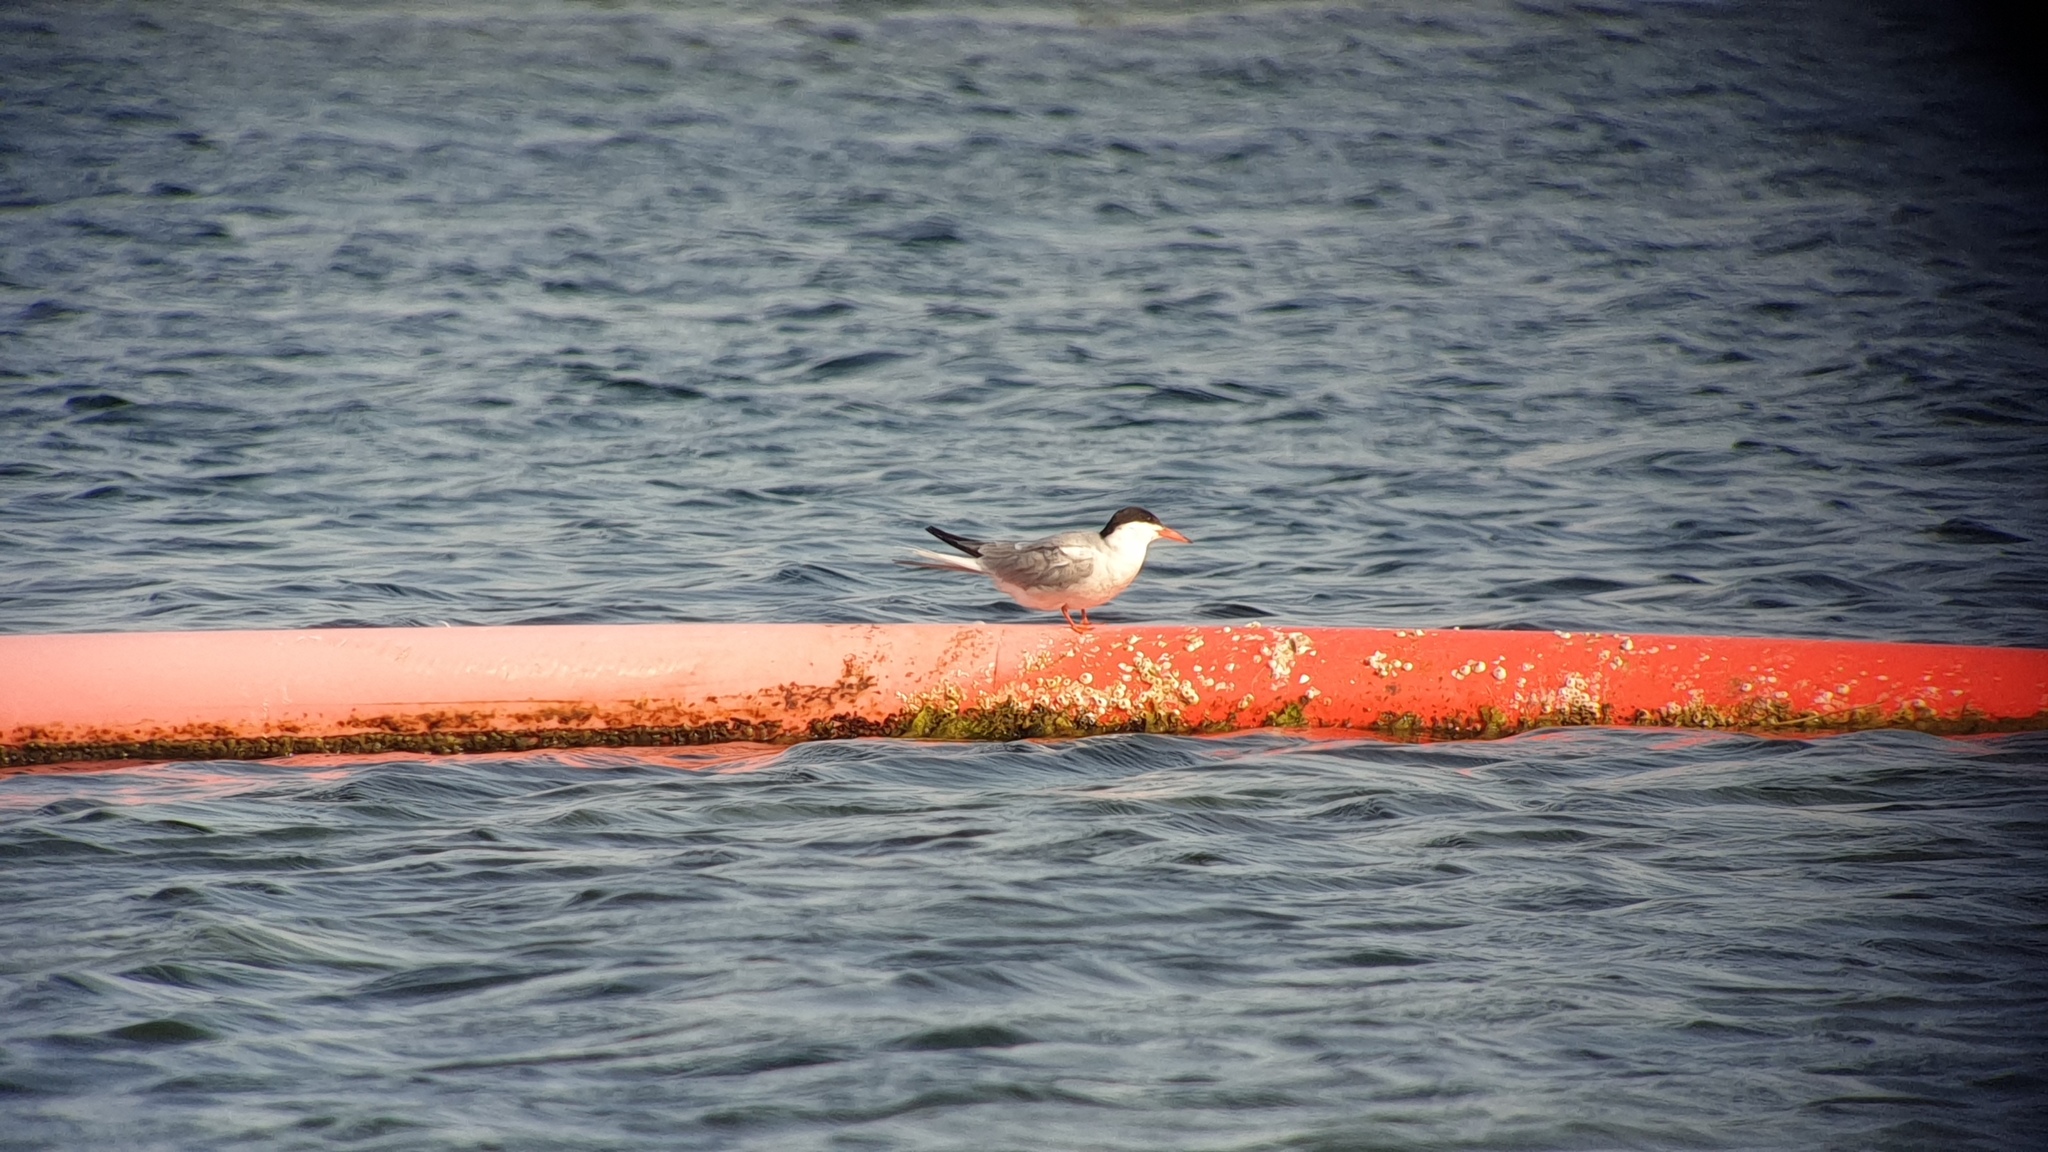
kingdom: Animalia
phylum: Chordata
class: Aves
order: Charadriiformes
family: Laridae
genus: Sterna
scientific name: Sterna hirundo
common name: Common tern
